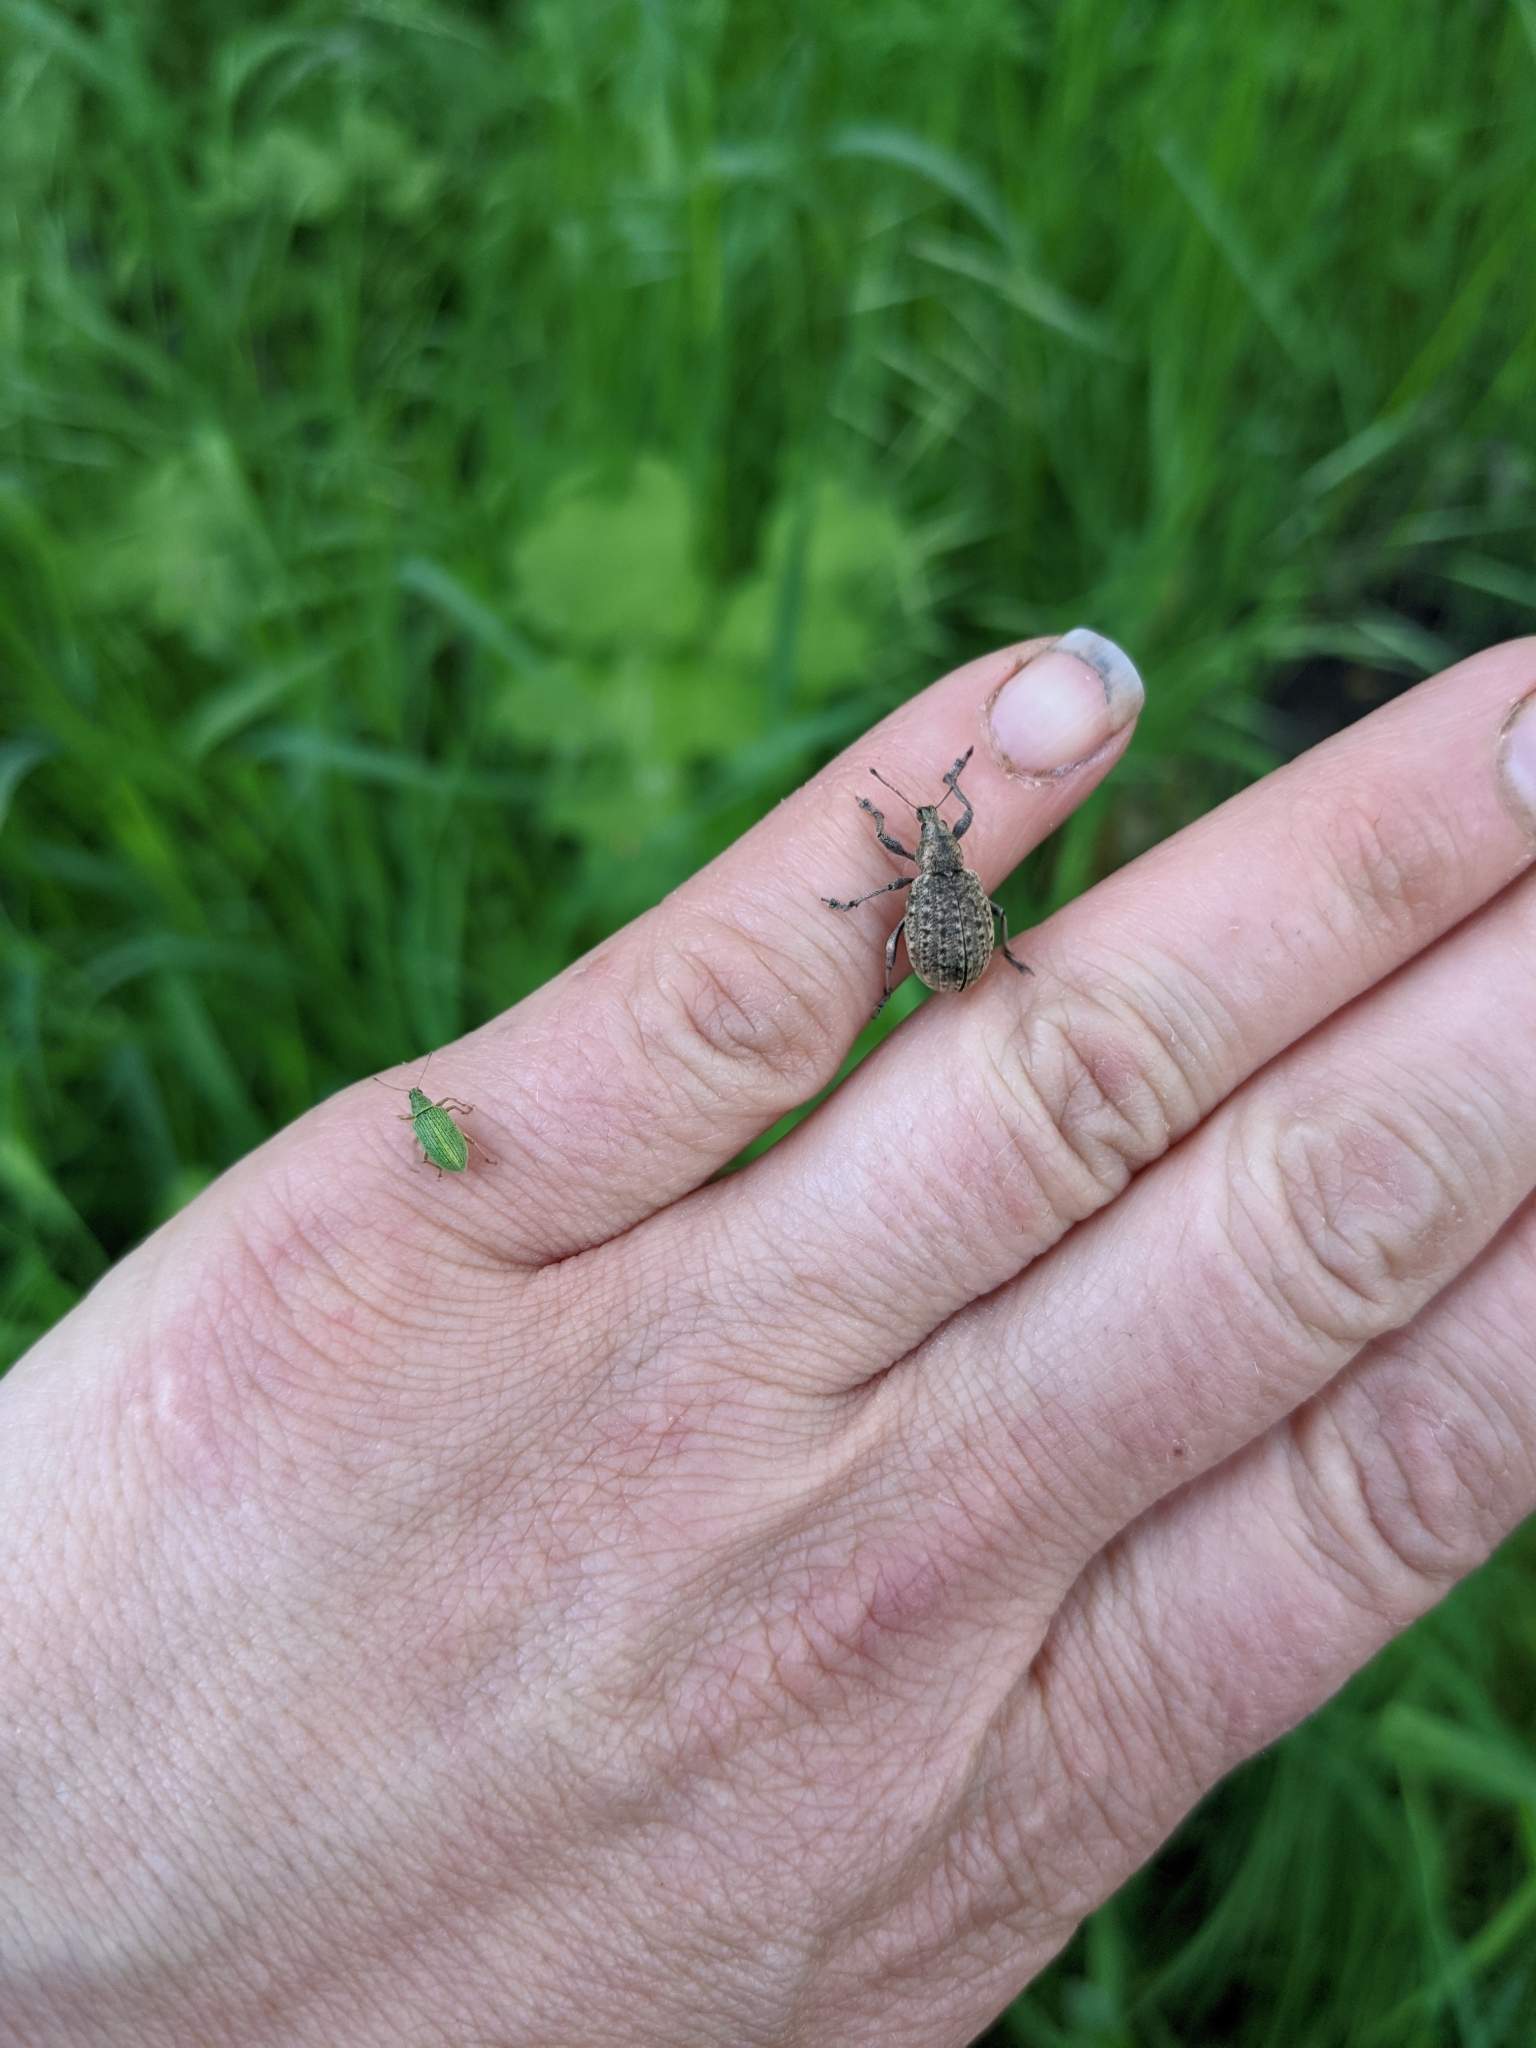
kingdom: Animalia
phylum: Arthropoda
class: Insecta
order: Coleoptera
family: Curculionidae
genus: Liophloeus
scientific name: Liophloeus tessulatus
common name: Weevil
